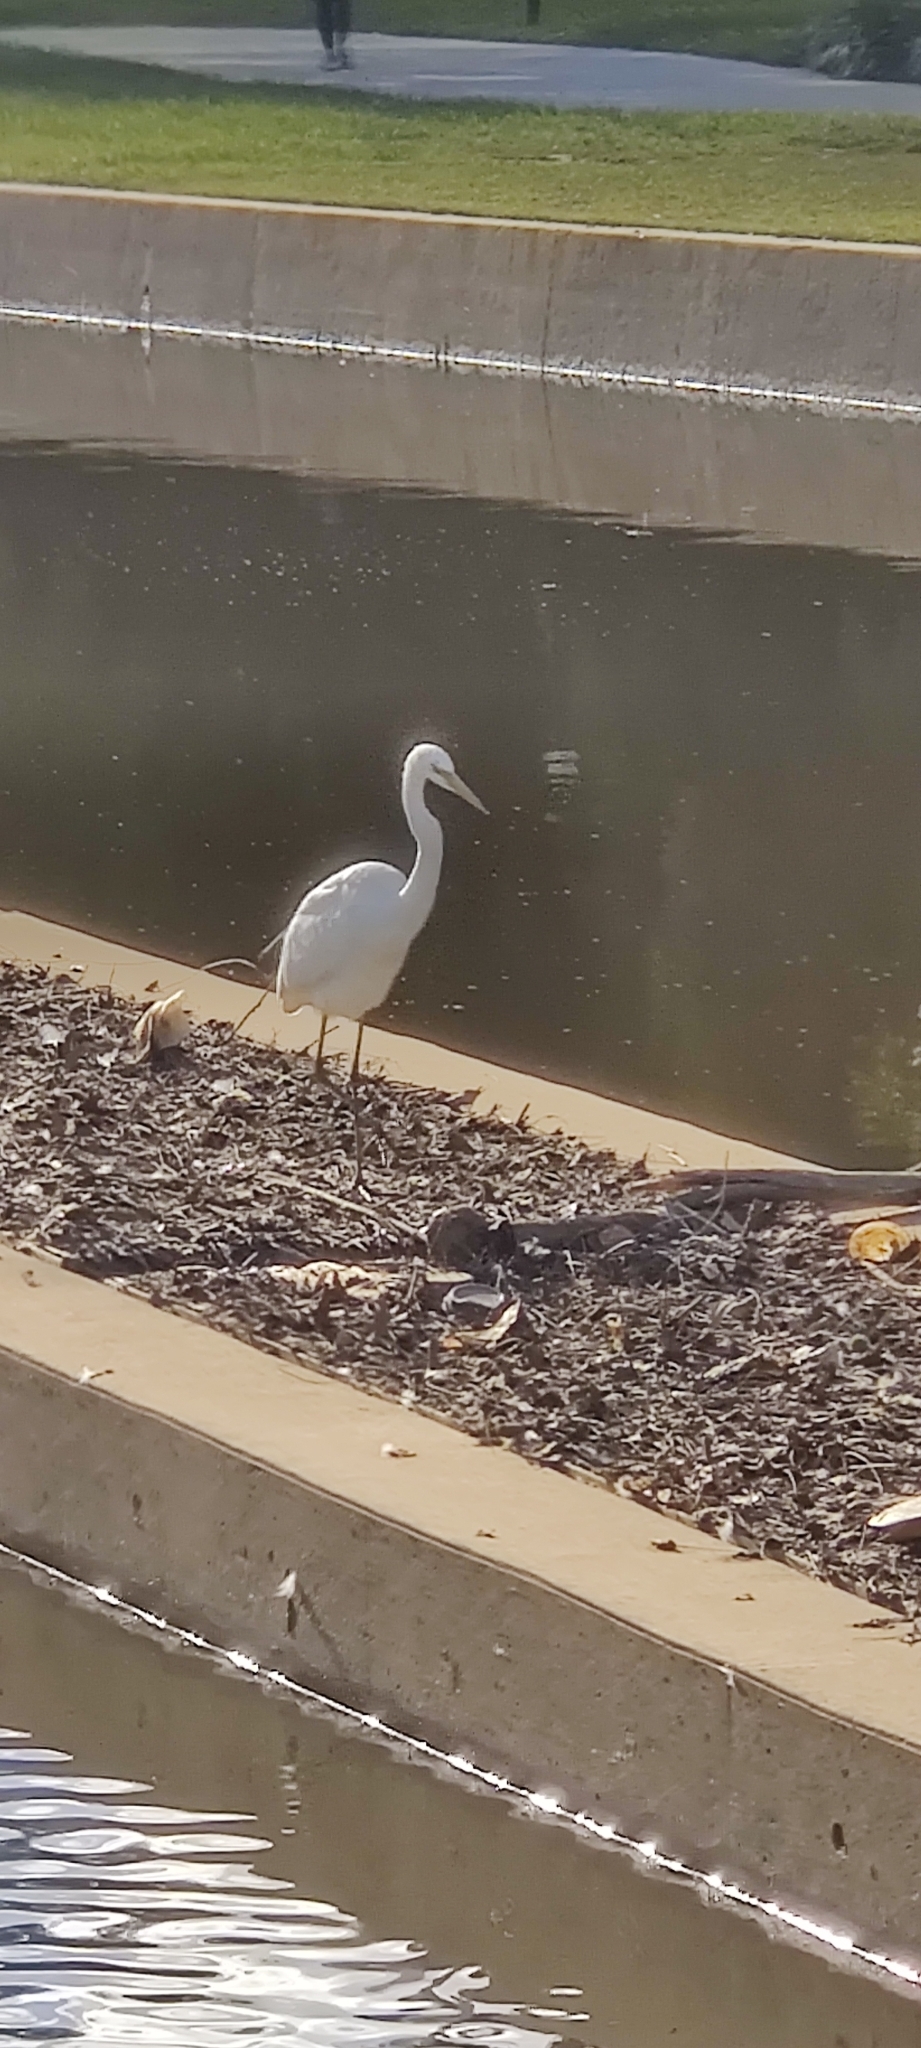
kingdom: Animalia
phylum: Chordata
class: Aves
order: Pelecaniformes
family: Ardeidae
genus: Ardea
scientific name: Ardea modesta
